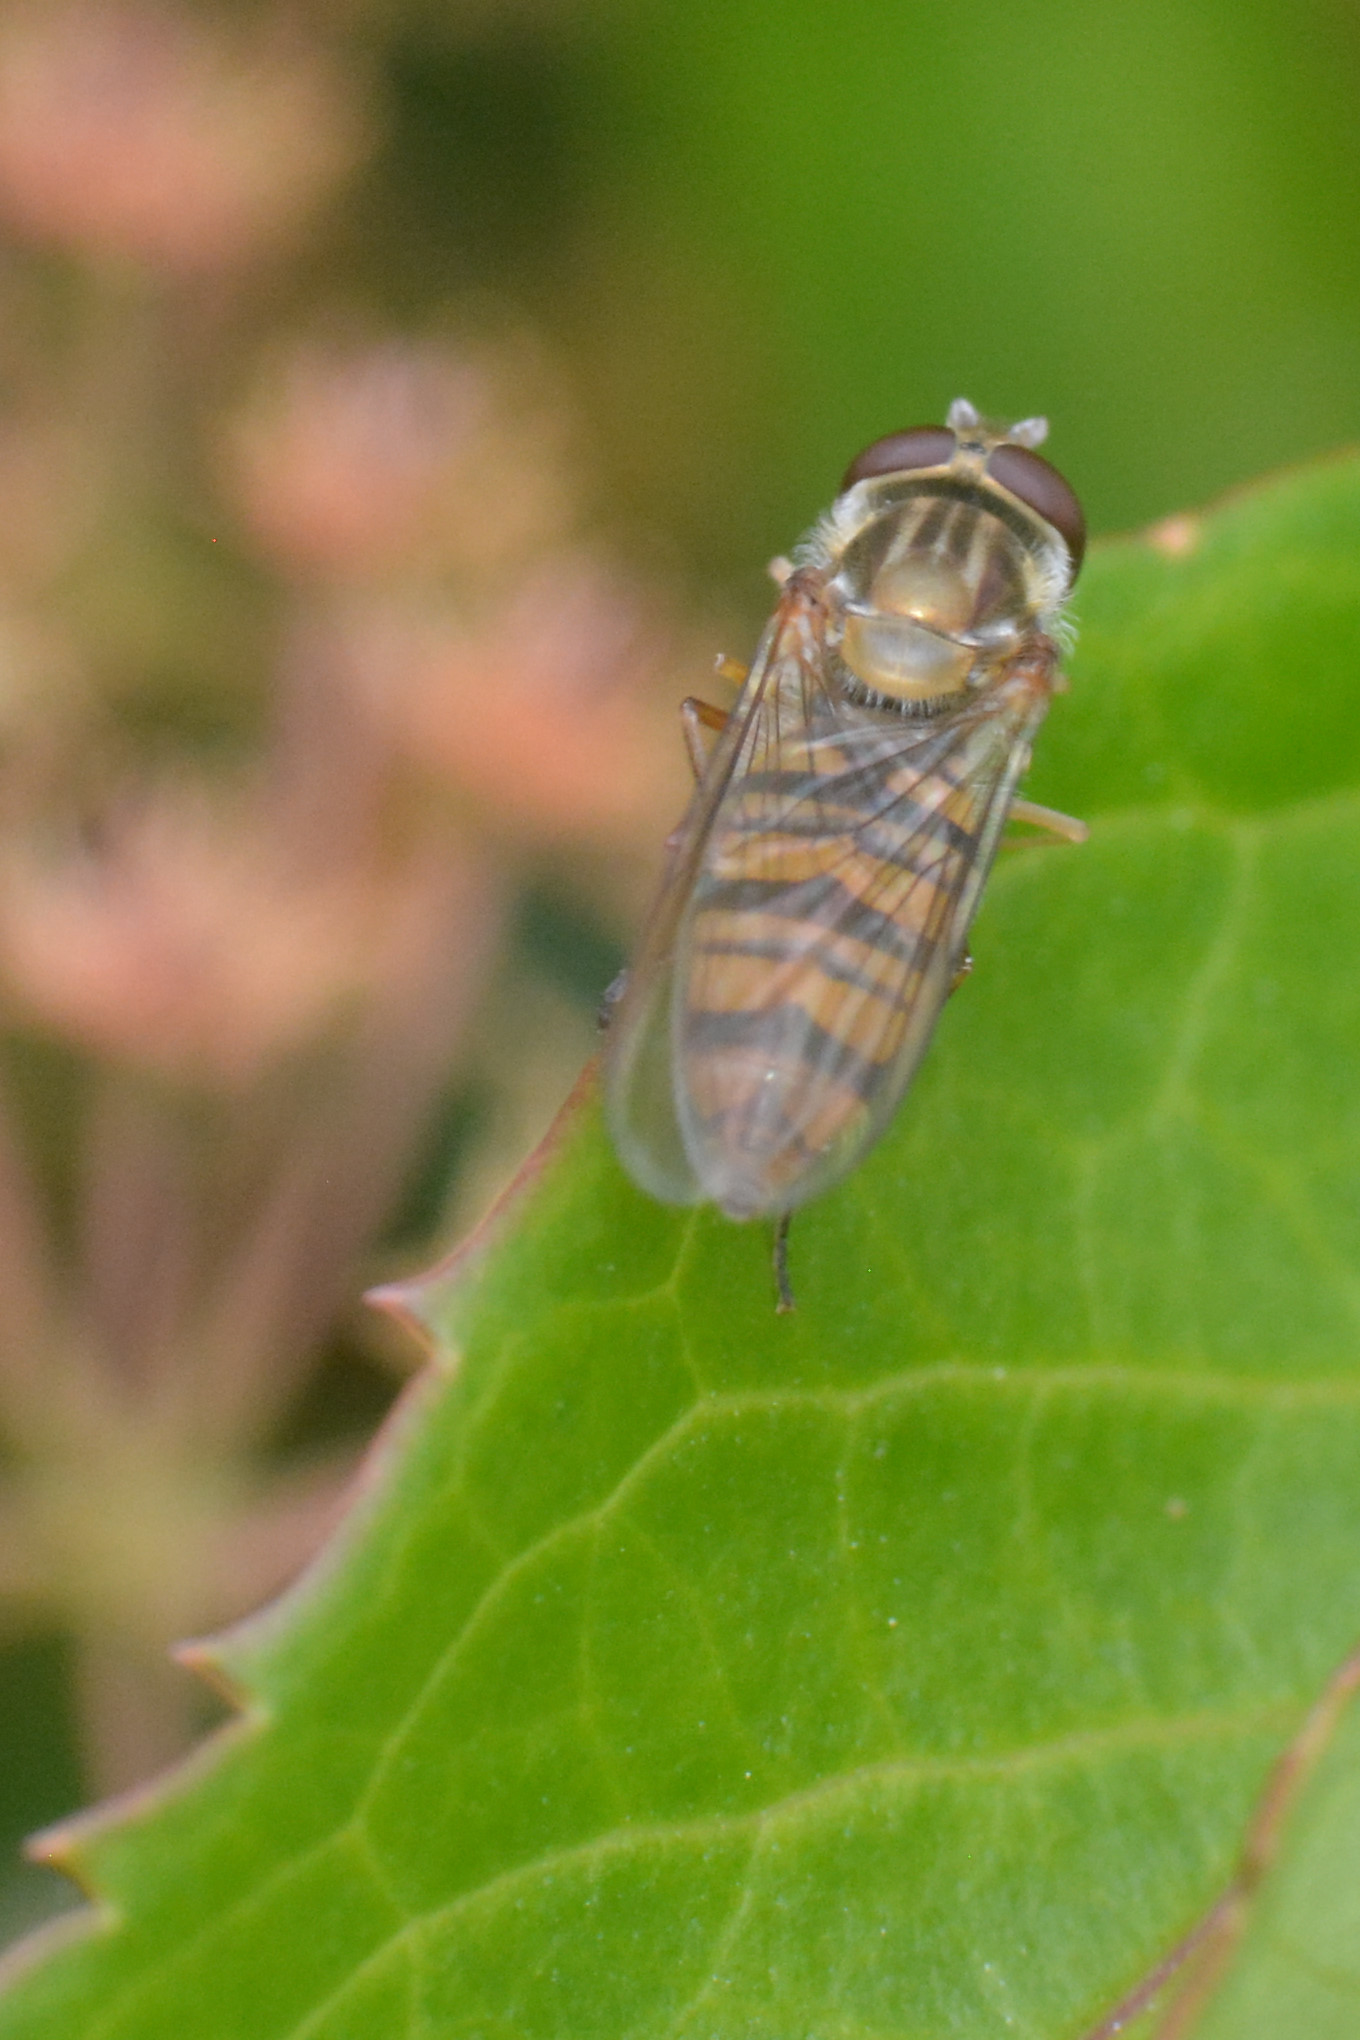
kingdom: Animalia
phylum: Arthropoda
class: Insecta
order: Diptera
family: Syrphidae
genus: Episyrphus
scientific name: Episyrphus balteatus
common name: Marmalade hoverfly
